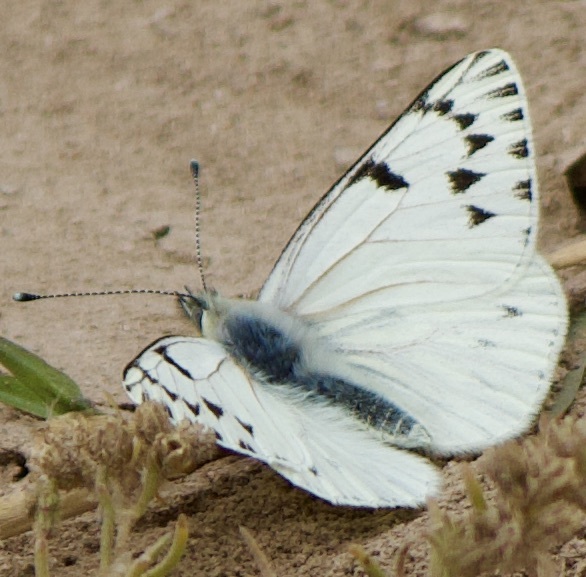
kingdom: Animalia
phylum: Arthropoda
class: Insecta
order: Lepidoptera
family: Pieridae
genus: Tatochila
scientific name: Tatochila mercedis
